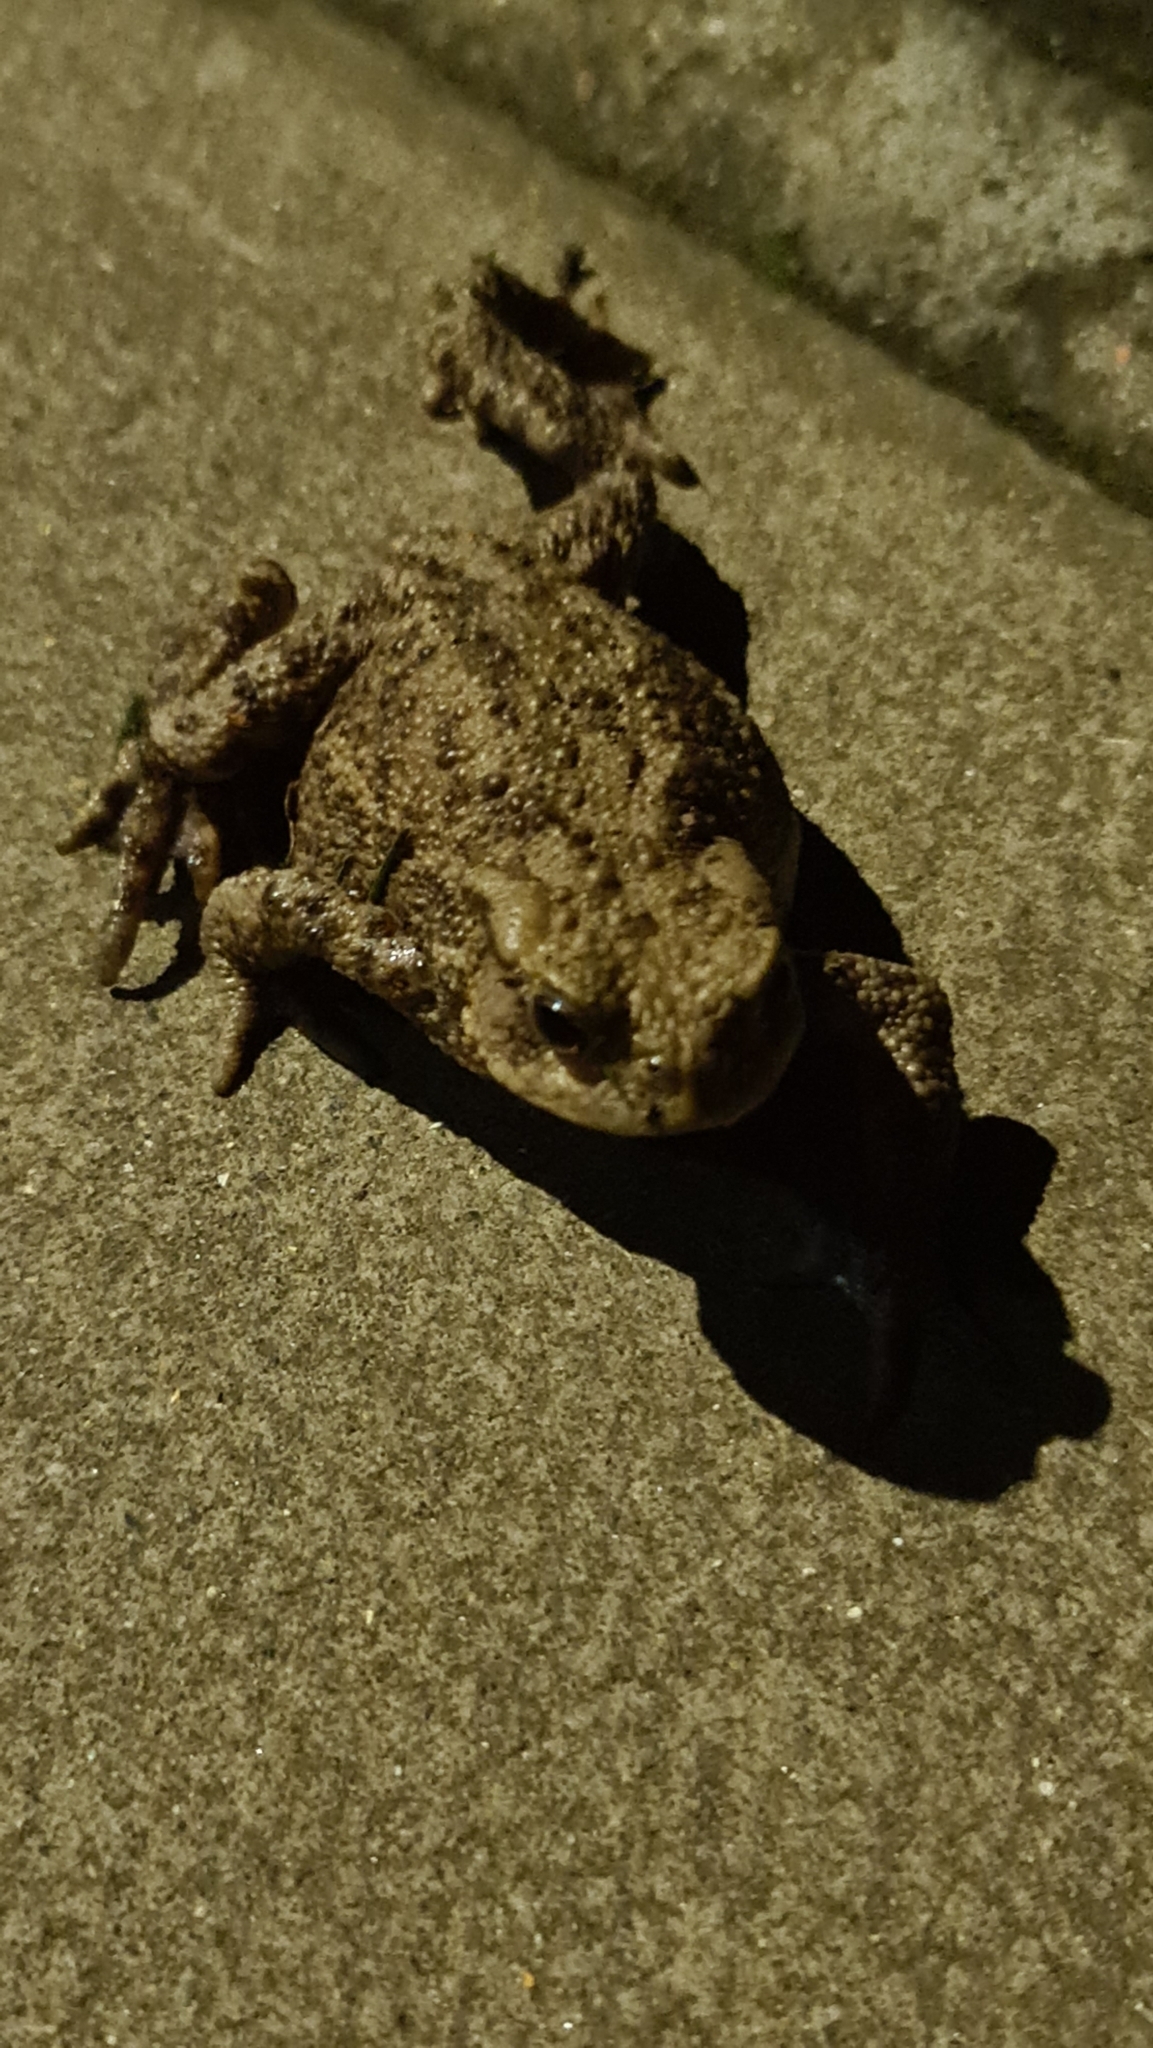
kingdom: Animalia
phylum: Chordata
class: Amphibia
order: Anura
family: Bufonidae
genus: Bufo
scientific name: Bufo bufo
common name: Common toad
